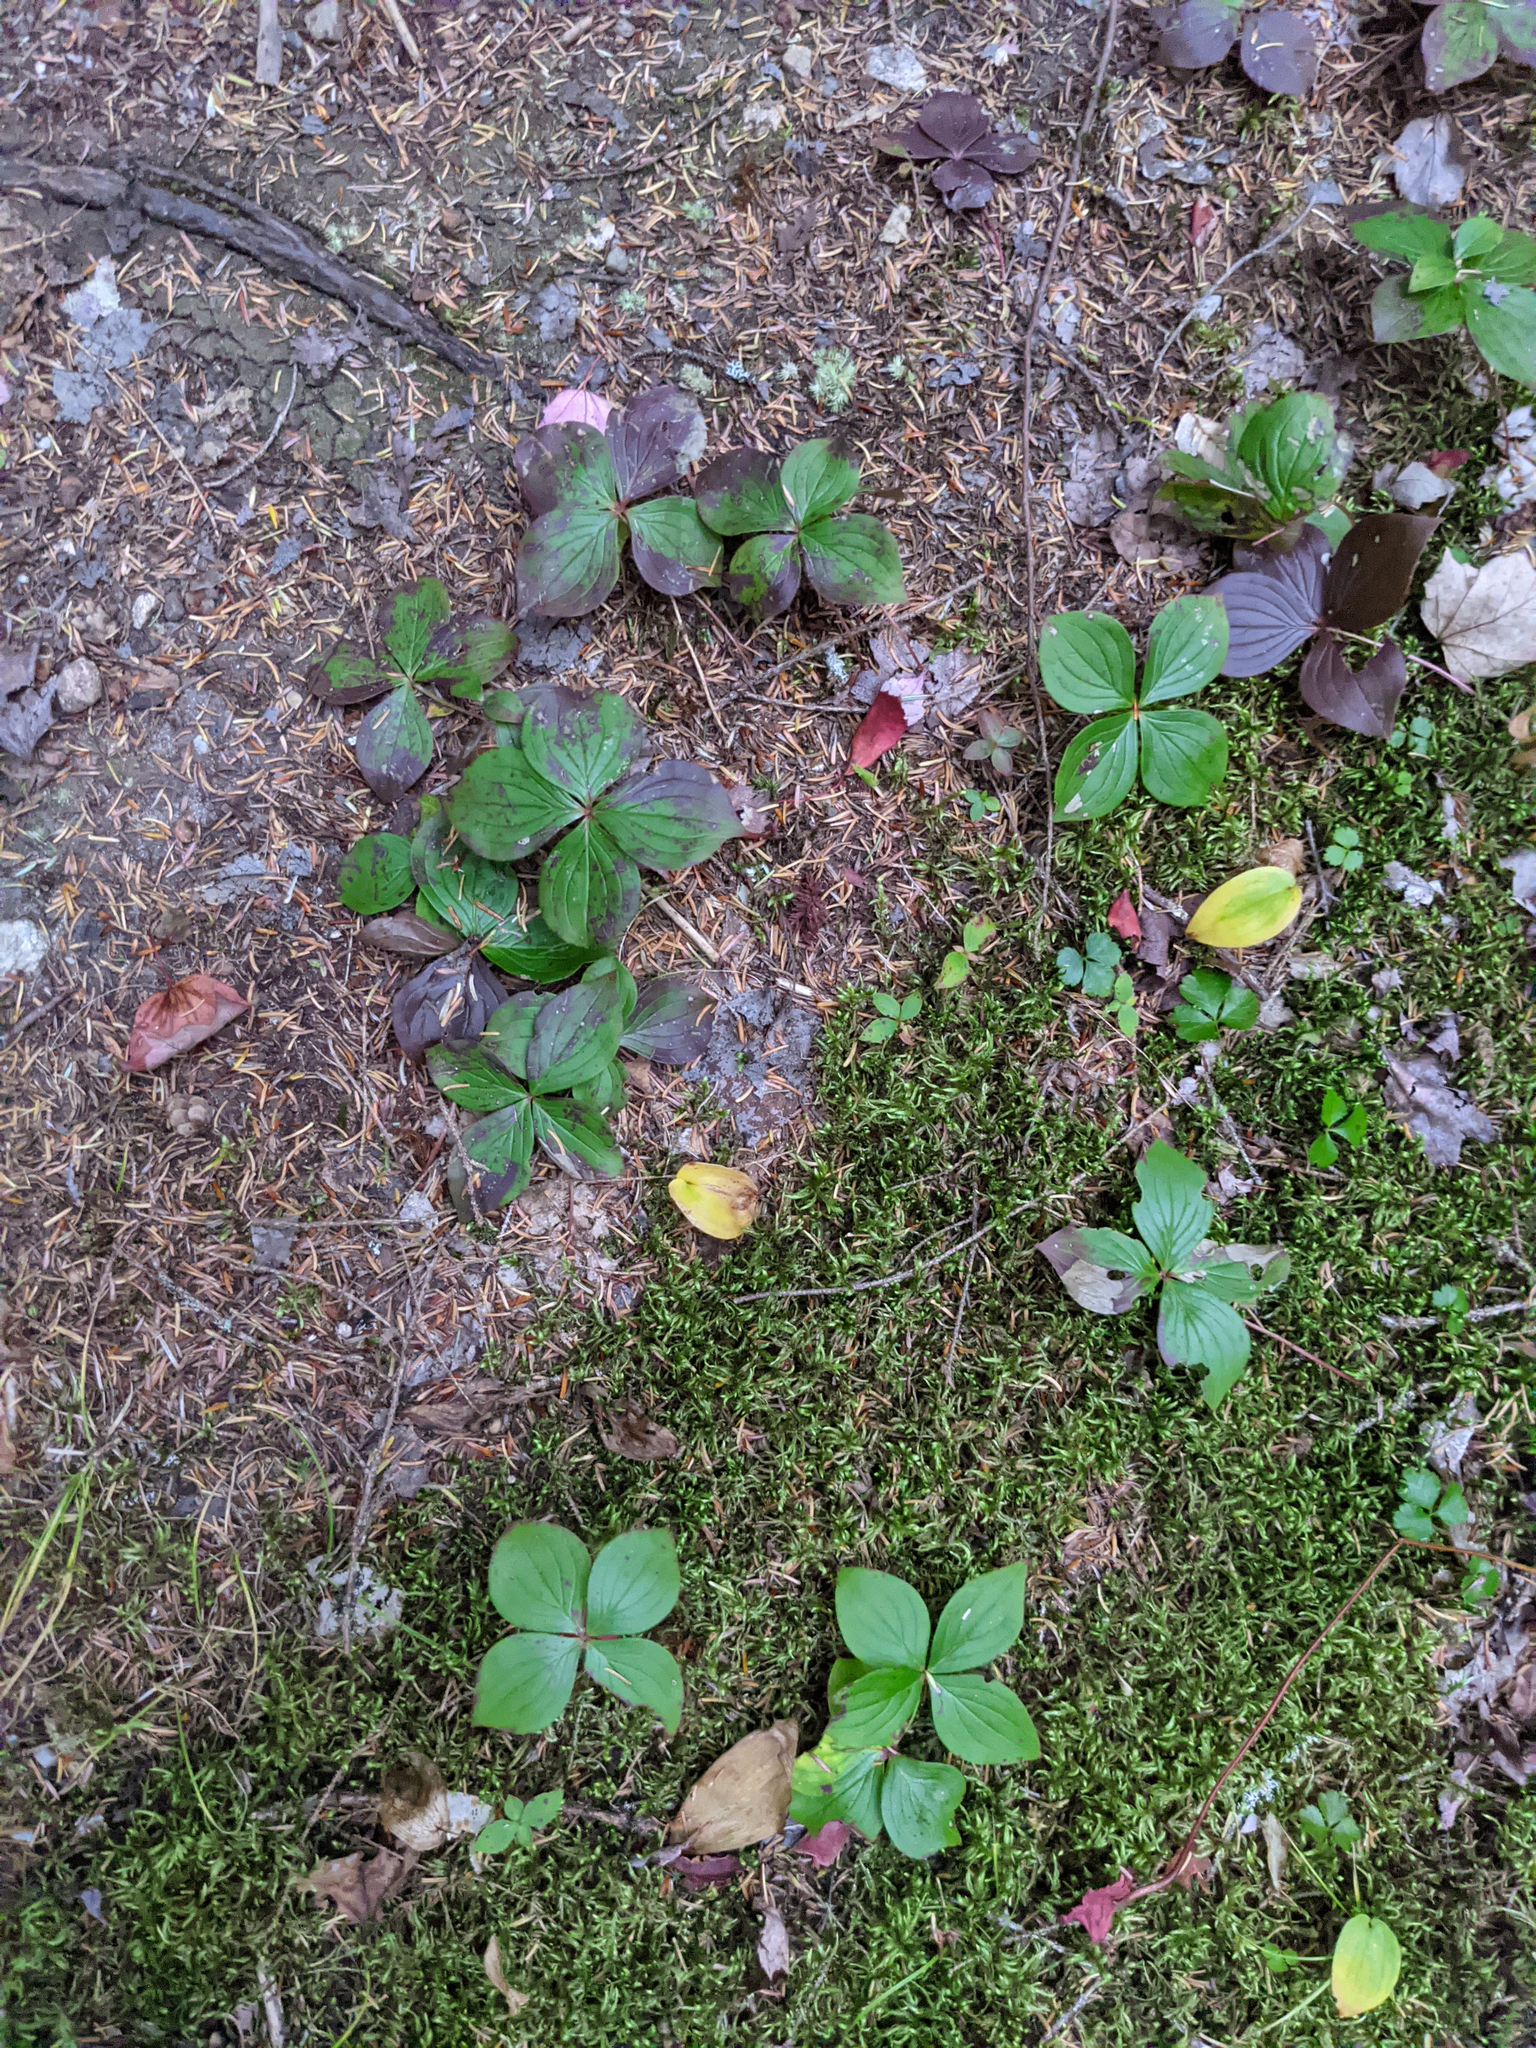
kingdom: Plantae
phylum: Tracheophyta
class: Magnoliopsida
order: Cornales
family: Cornaceae
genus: Cornus
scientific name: Cornus canadensis
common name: Creeping dogwood
